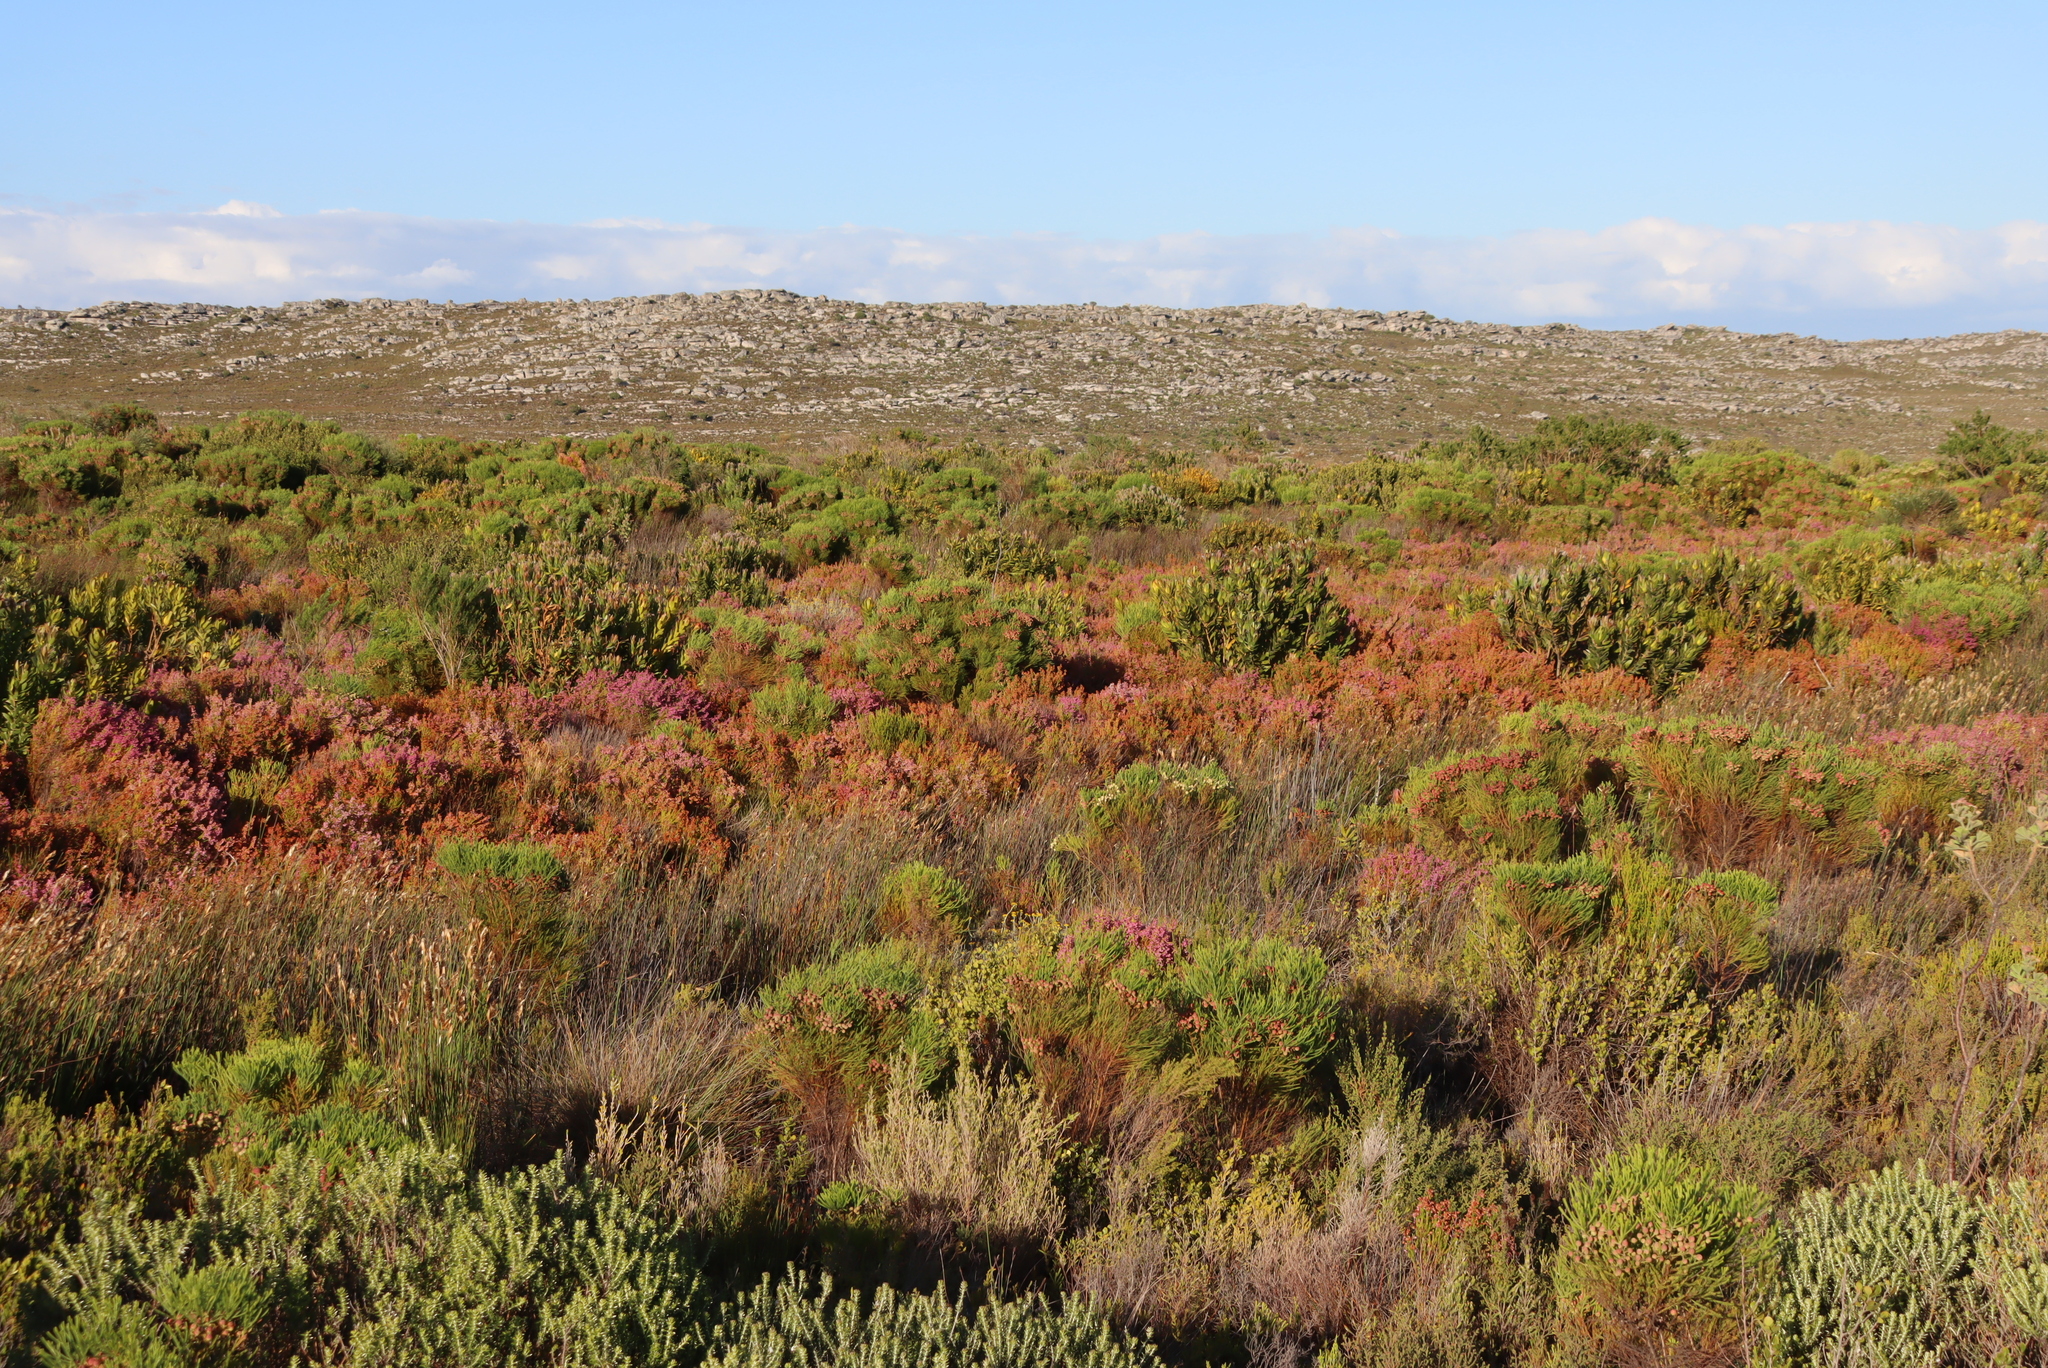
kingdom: Plantae
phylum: Tracheophyta
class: Magnoliopsida
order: Ericales
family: Ericaceae
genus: Erica
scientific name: Erica laeta
